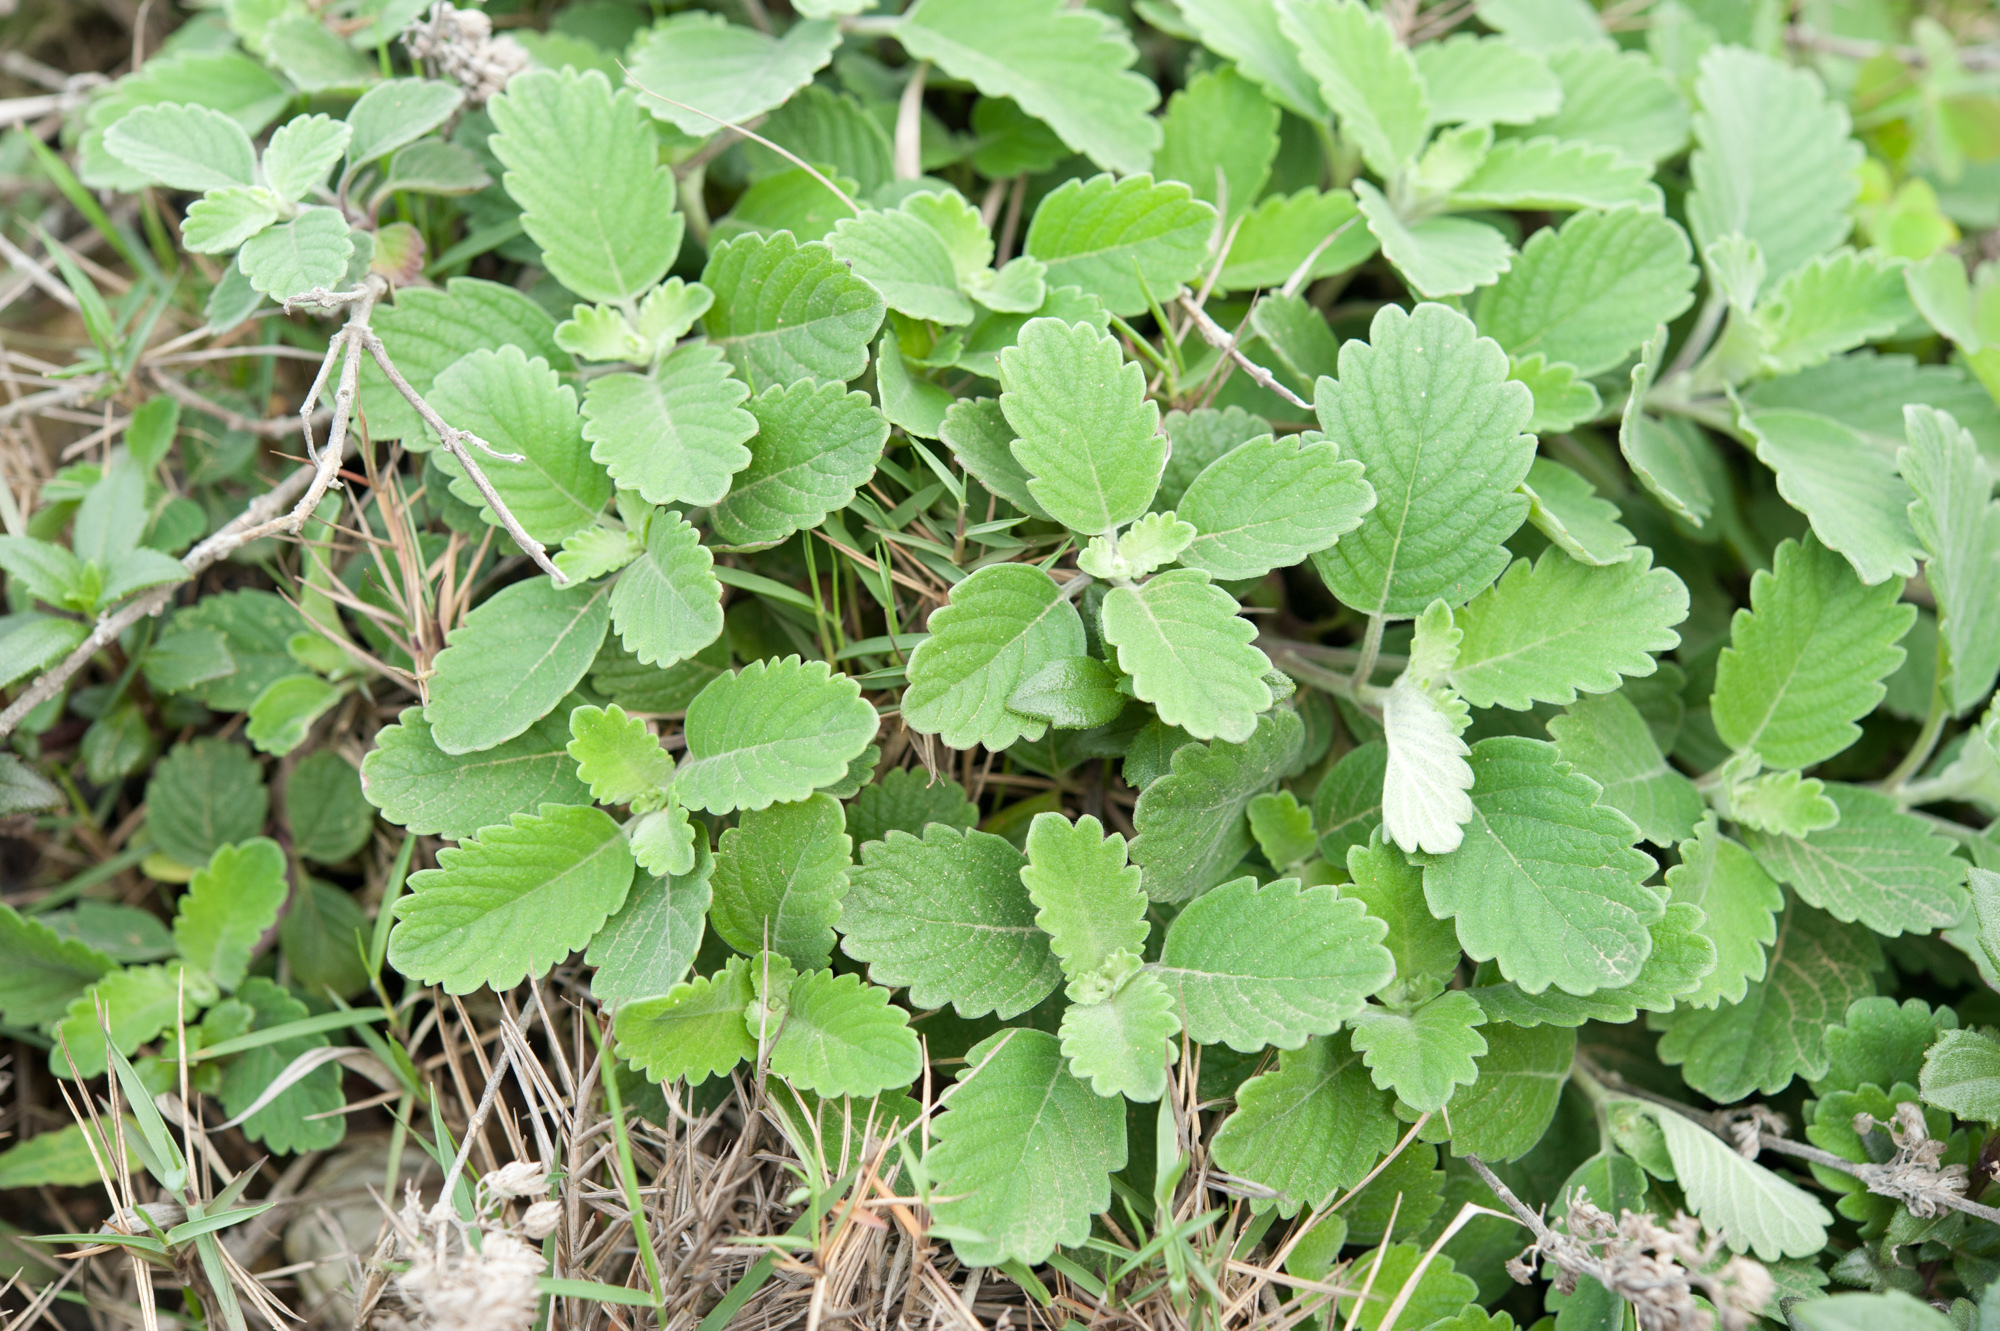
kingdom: Plantae
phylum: Tracheophyta
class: Magnoliopsida
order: Lamiales
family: Lamiaceae
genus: Caryopteris
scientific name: Caryopteris incana
